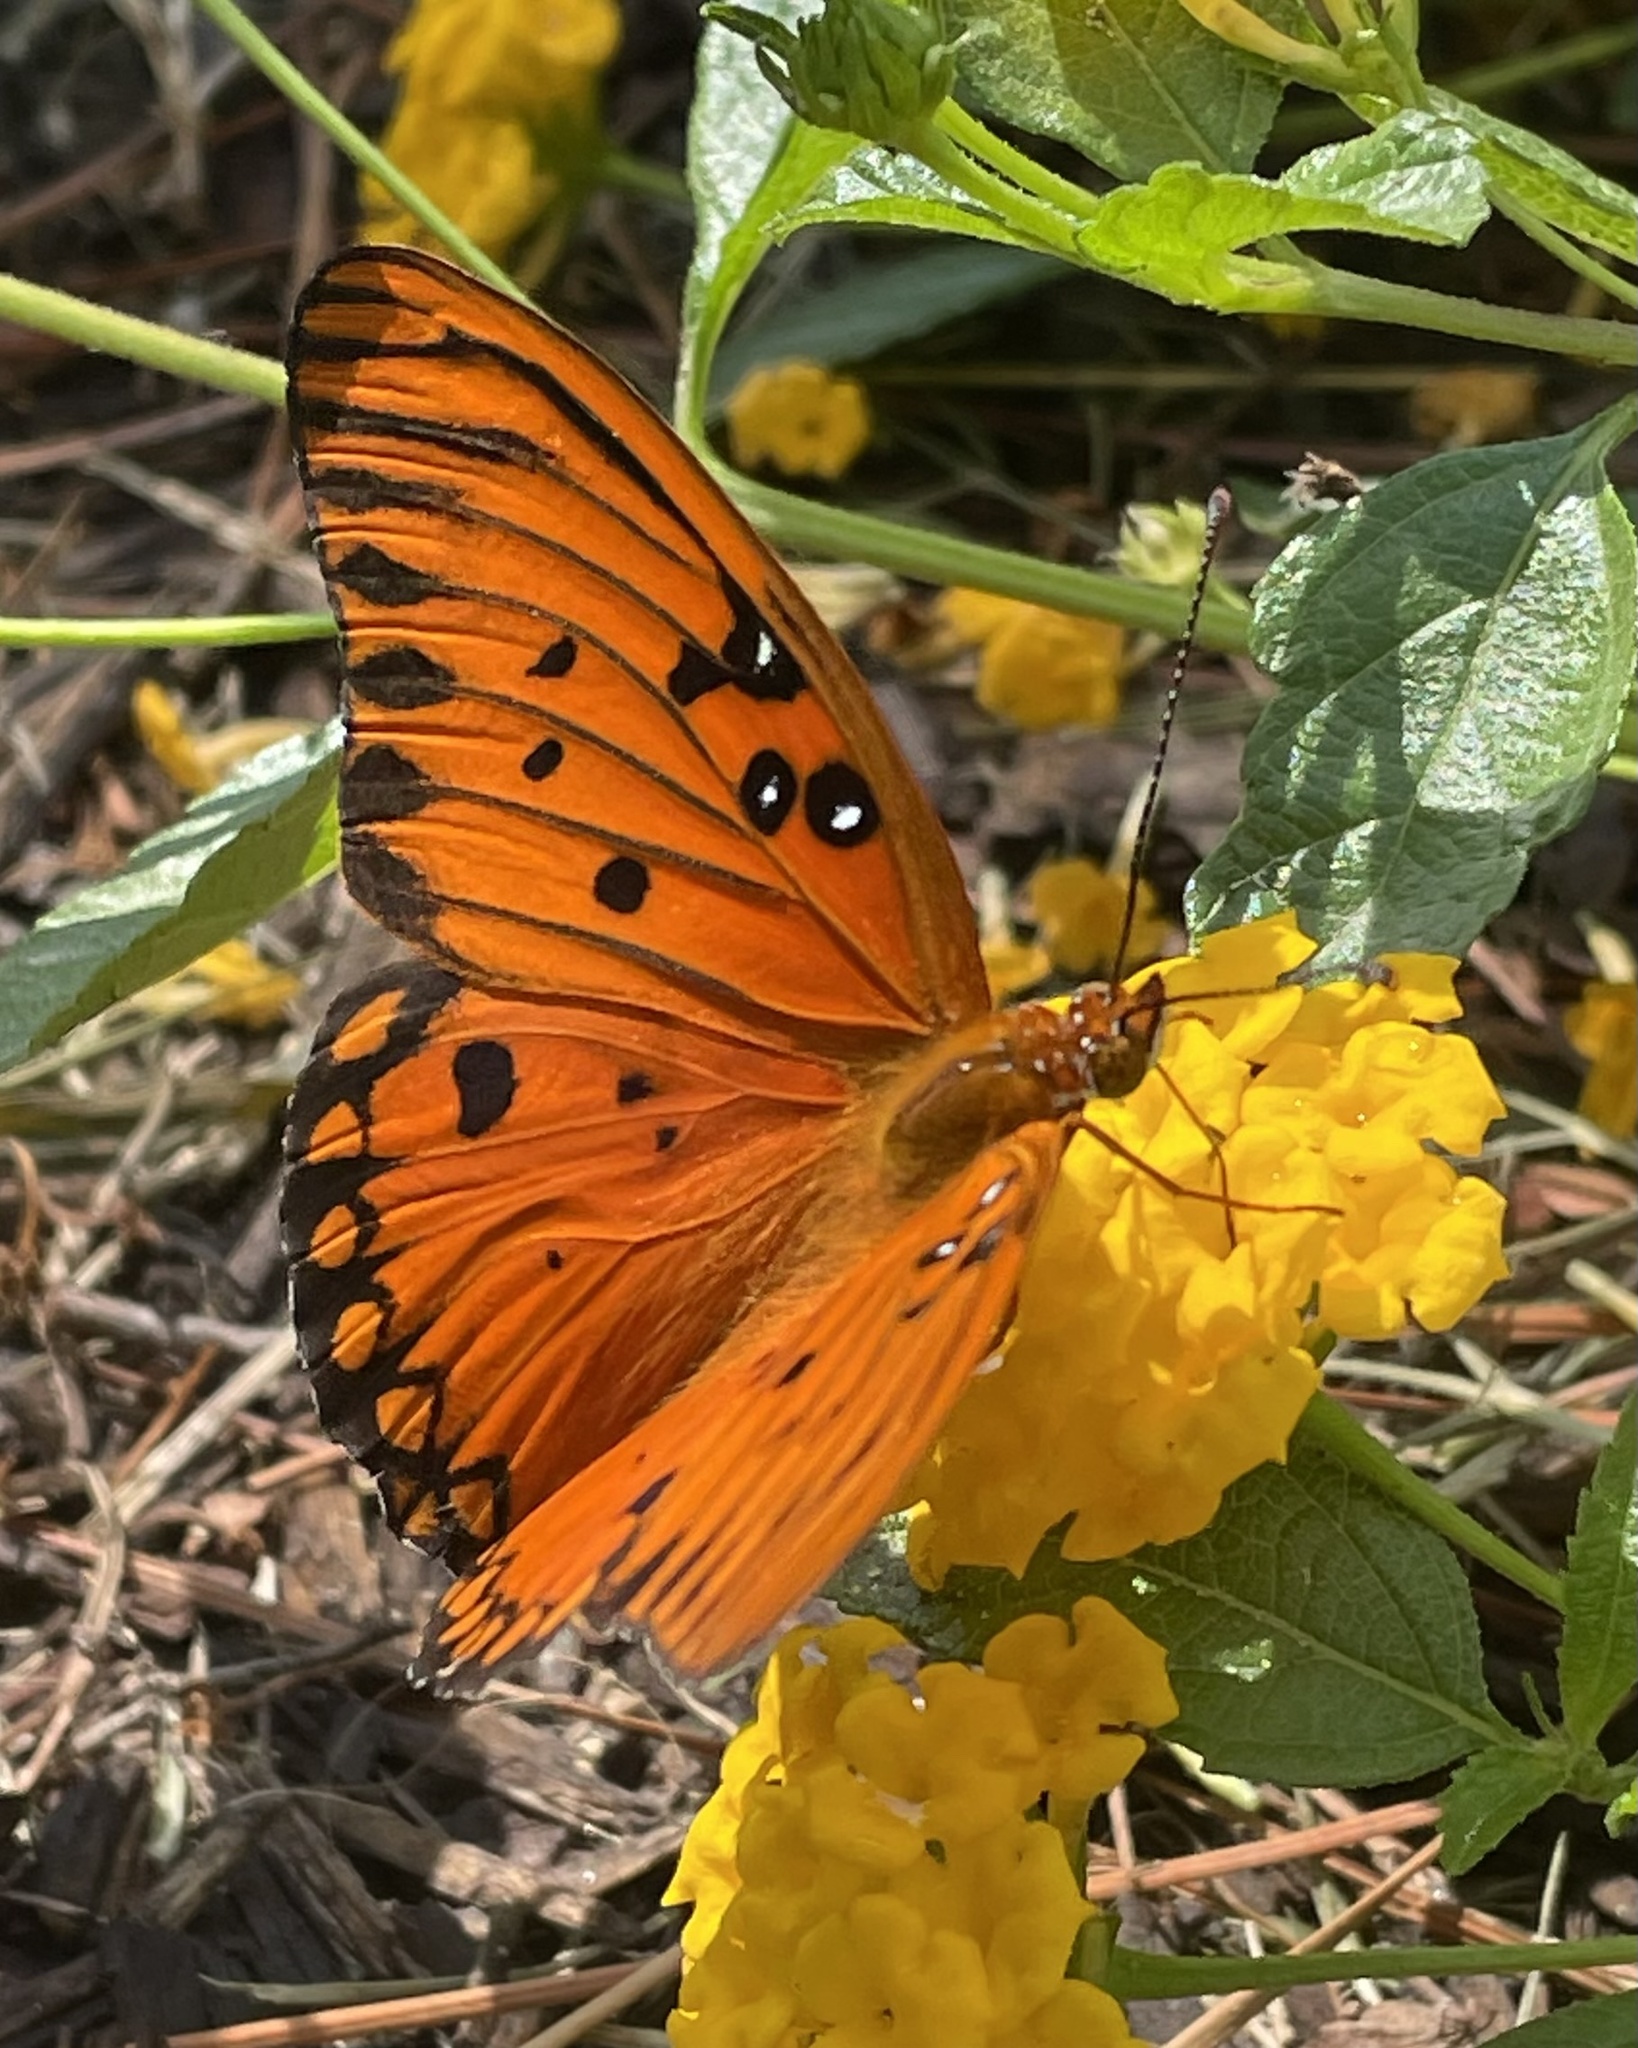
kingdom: Animalia
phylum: Arthropoda
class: Insecta
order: Lepidoptera
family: Nymphalidae
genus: Dione
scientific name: Dione vanillae
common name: Gulf fritillary
